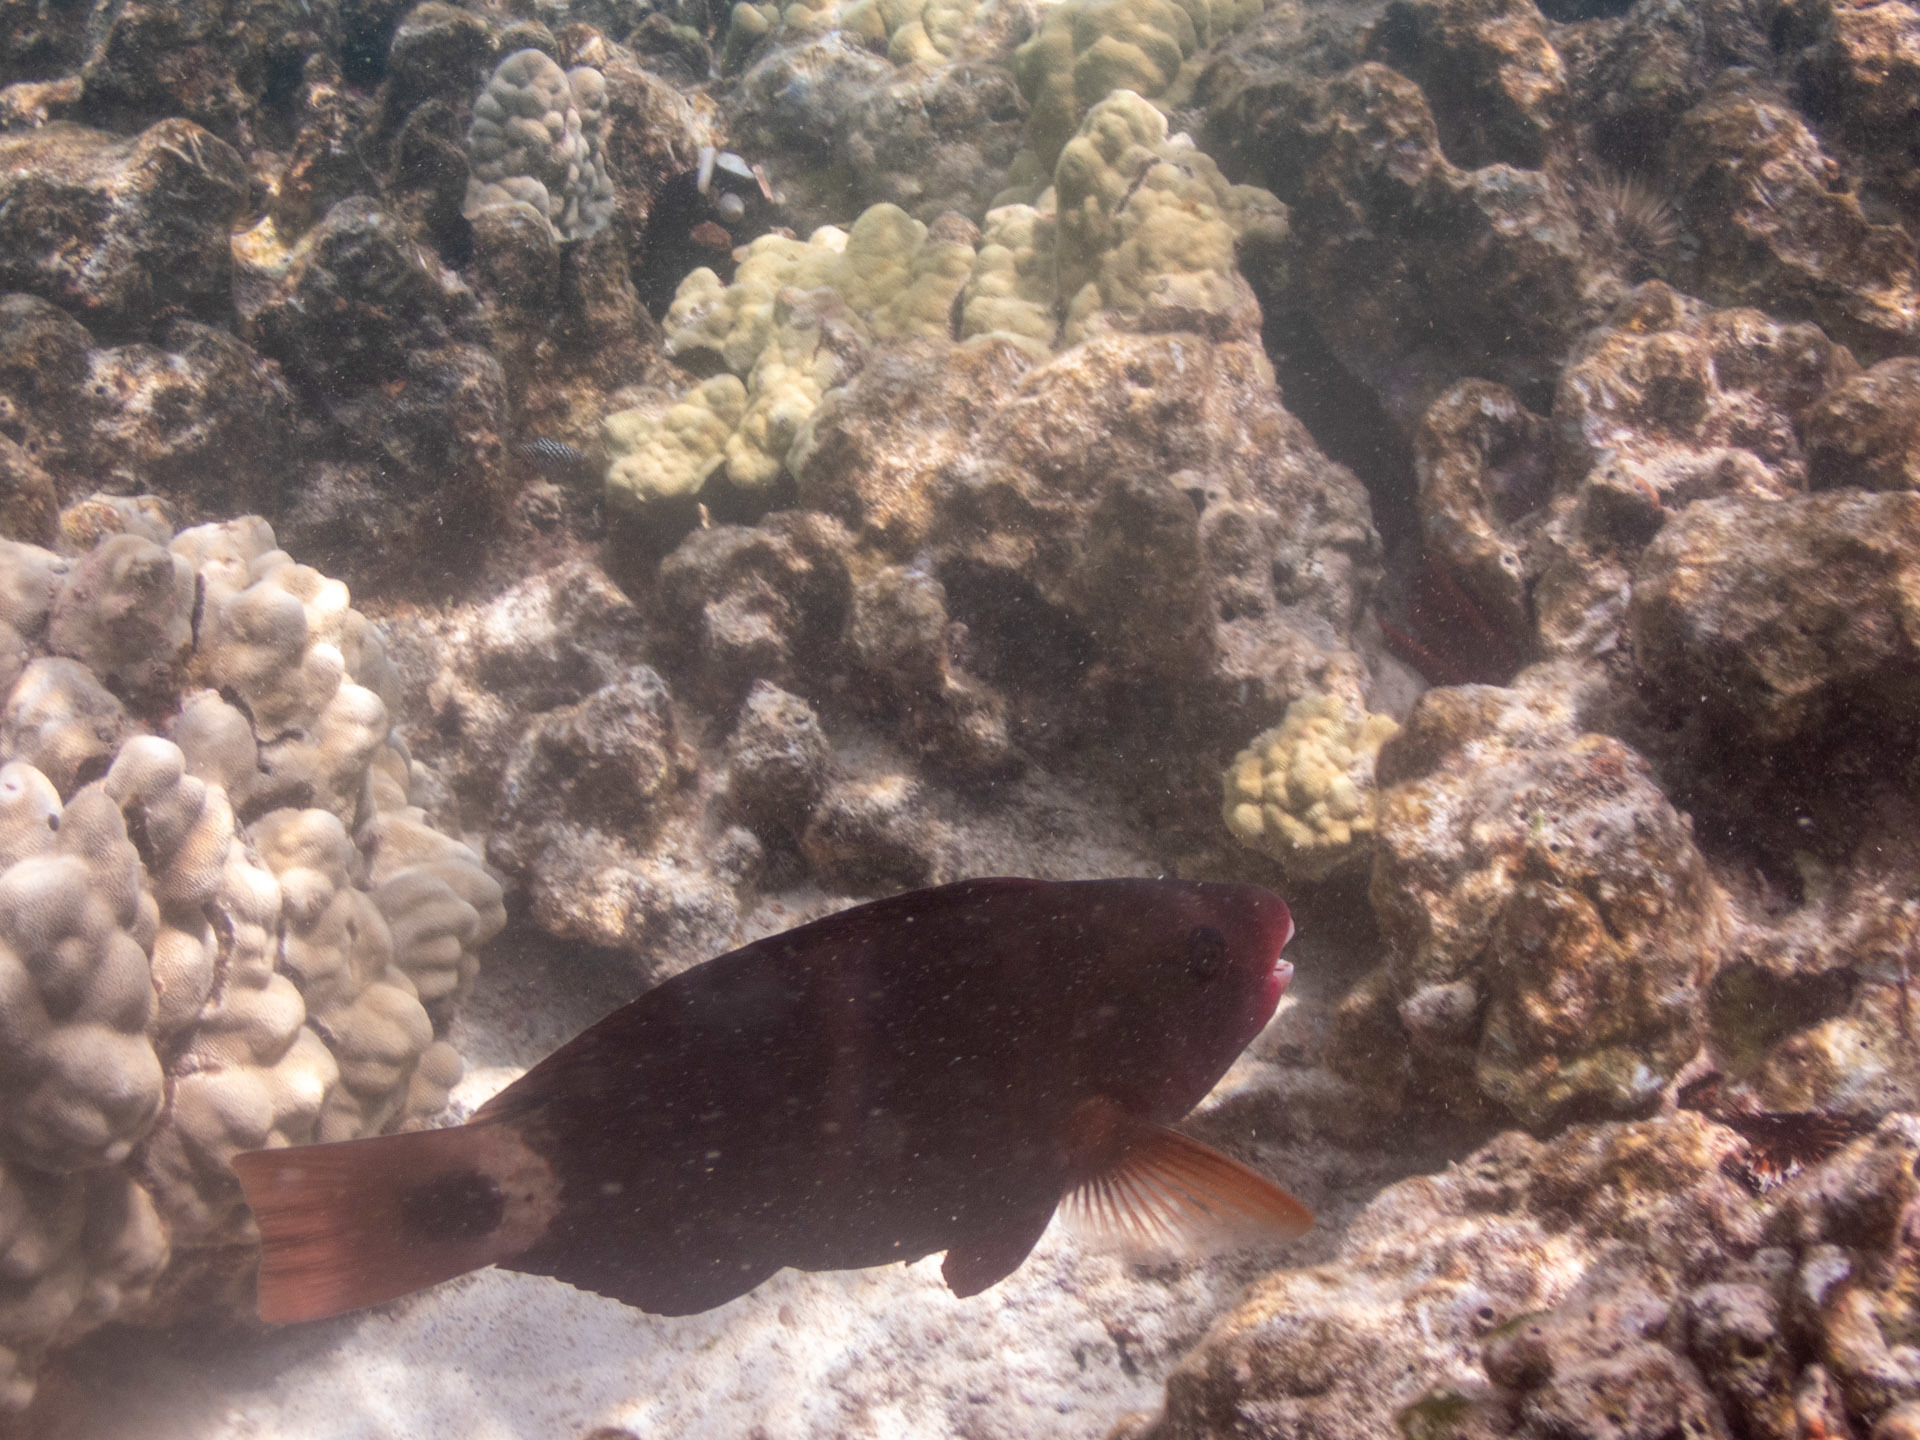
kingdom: Animalia
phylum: Chordata
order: Perciformes
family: Scaridae
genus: Chlorurus
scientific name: Chlorurus spilurus
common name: Bullethead parrotfish
